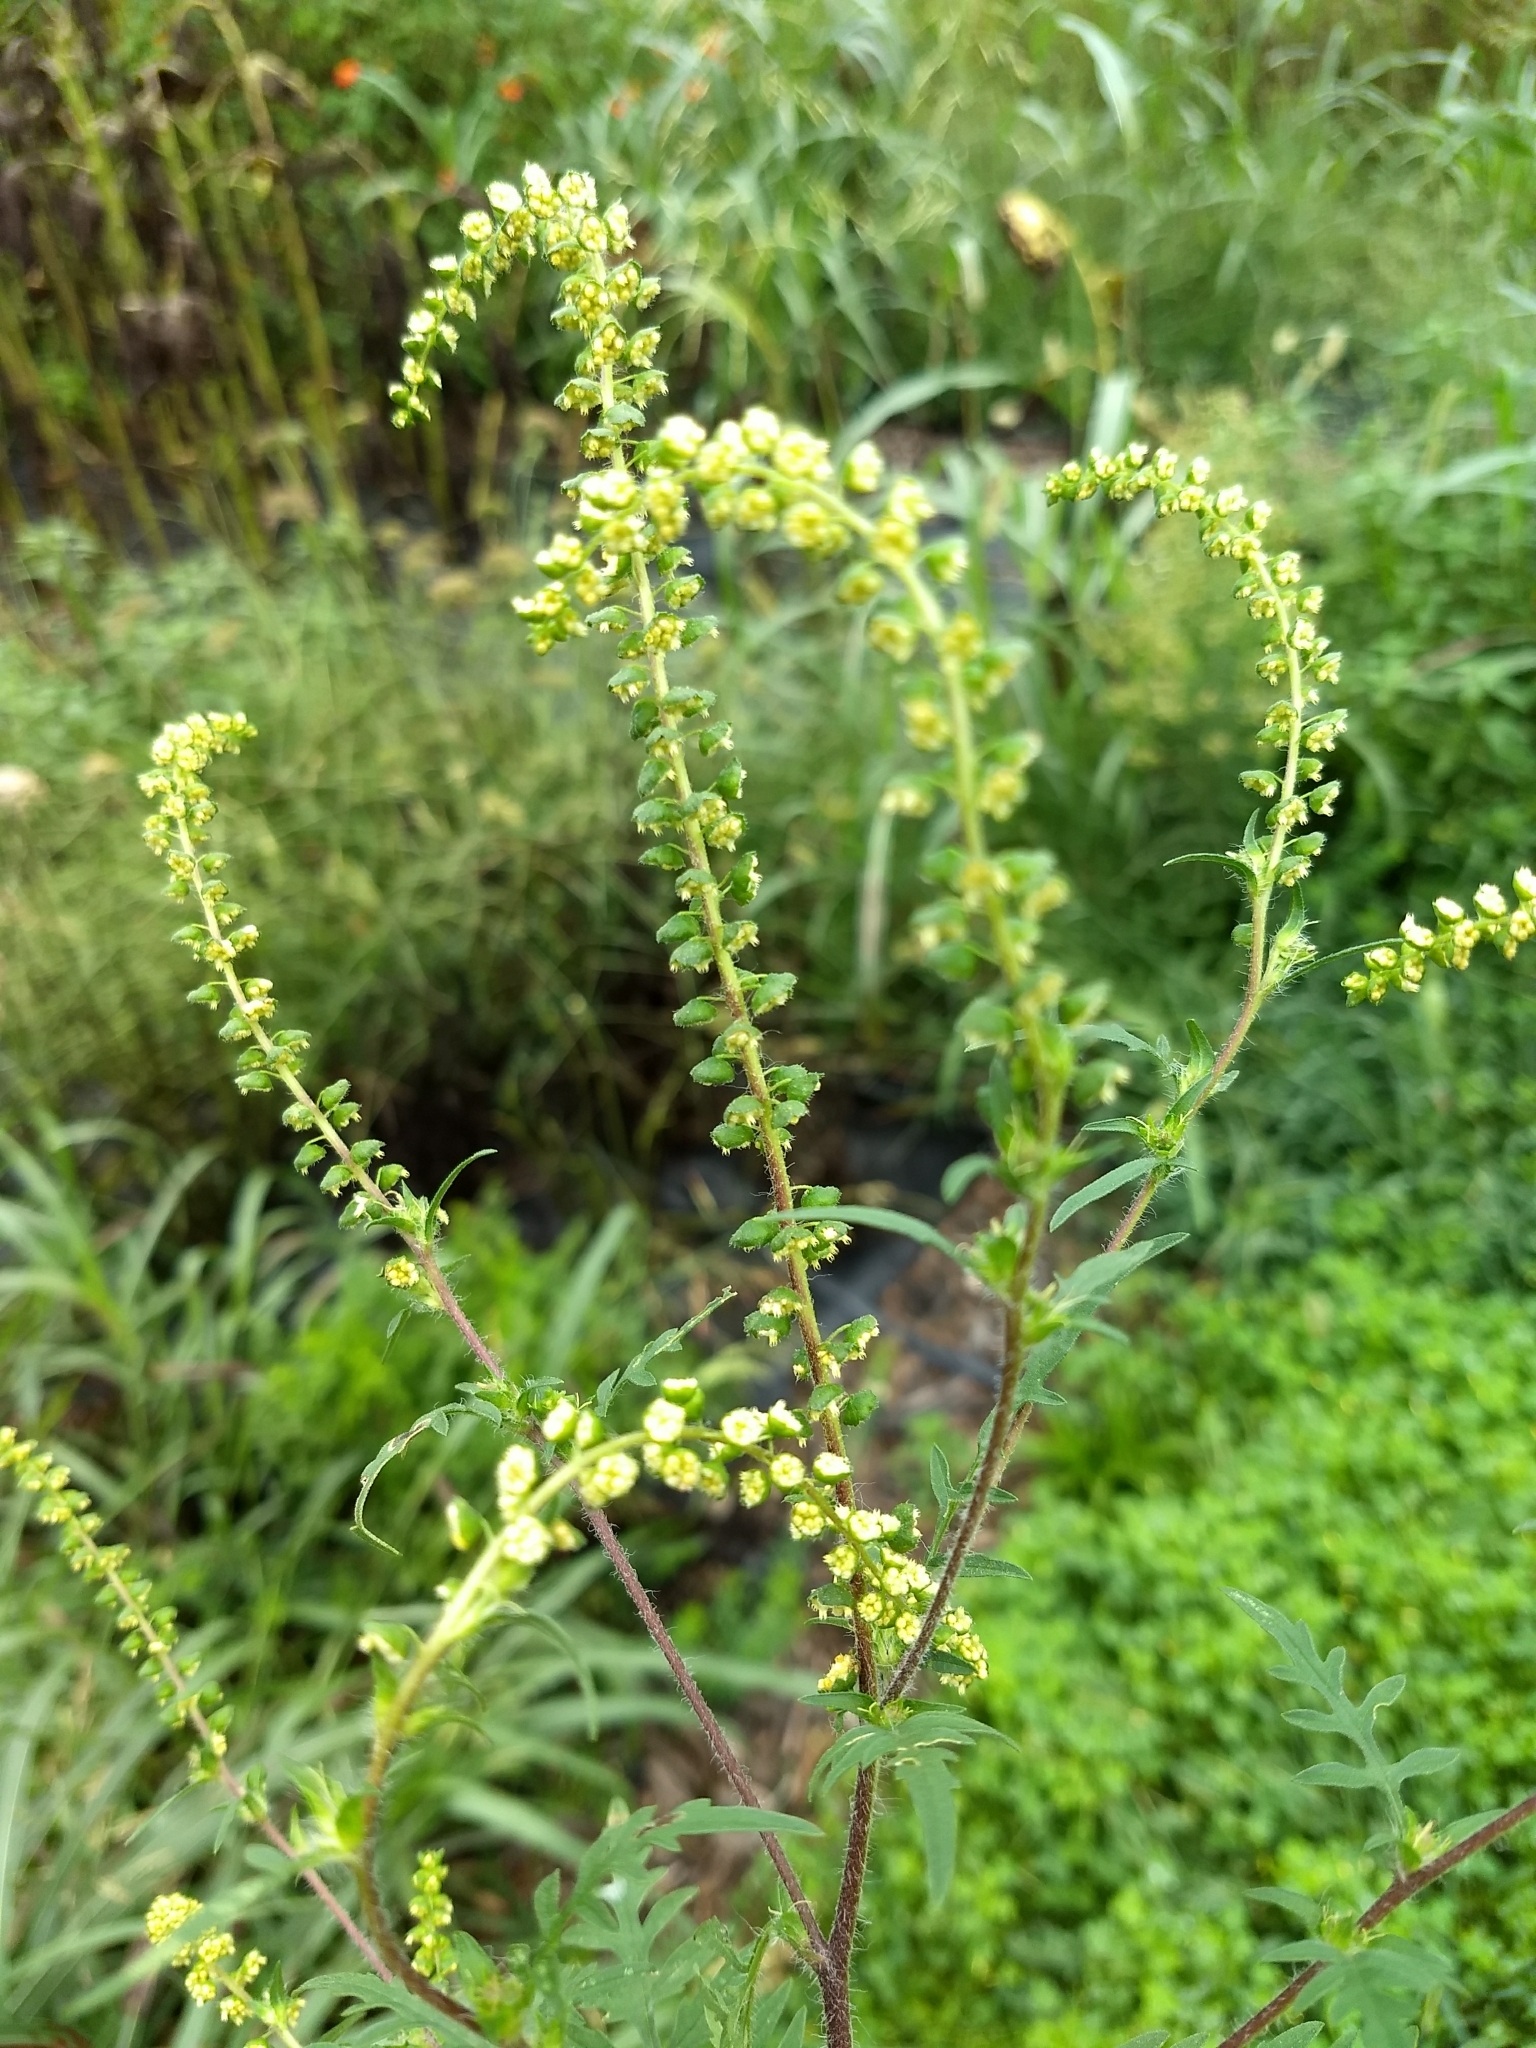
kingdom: Plantae
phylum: Tracheophyta
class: Magnoliopsida
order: Asterales
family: Asteraceae
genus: Ambrosia
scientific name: Ambrosia artemisiifolia
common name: Annual ragweed
